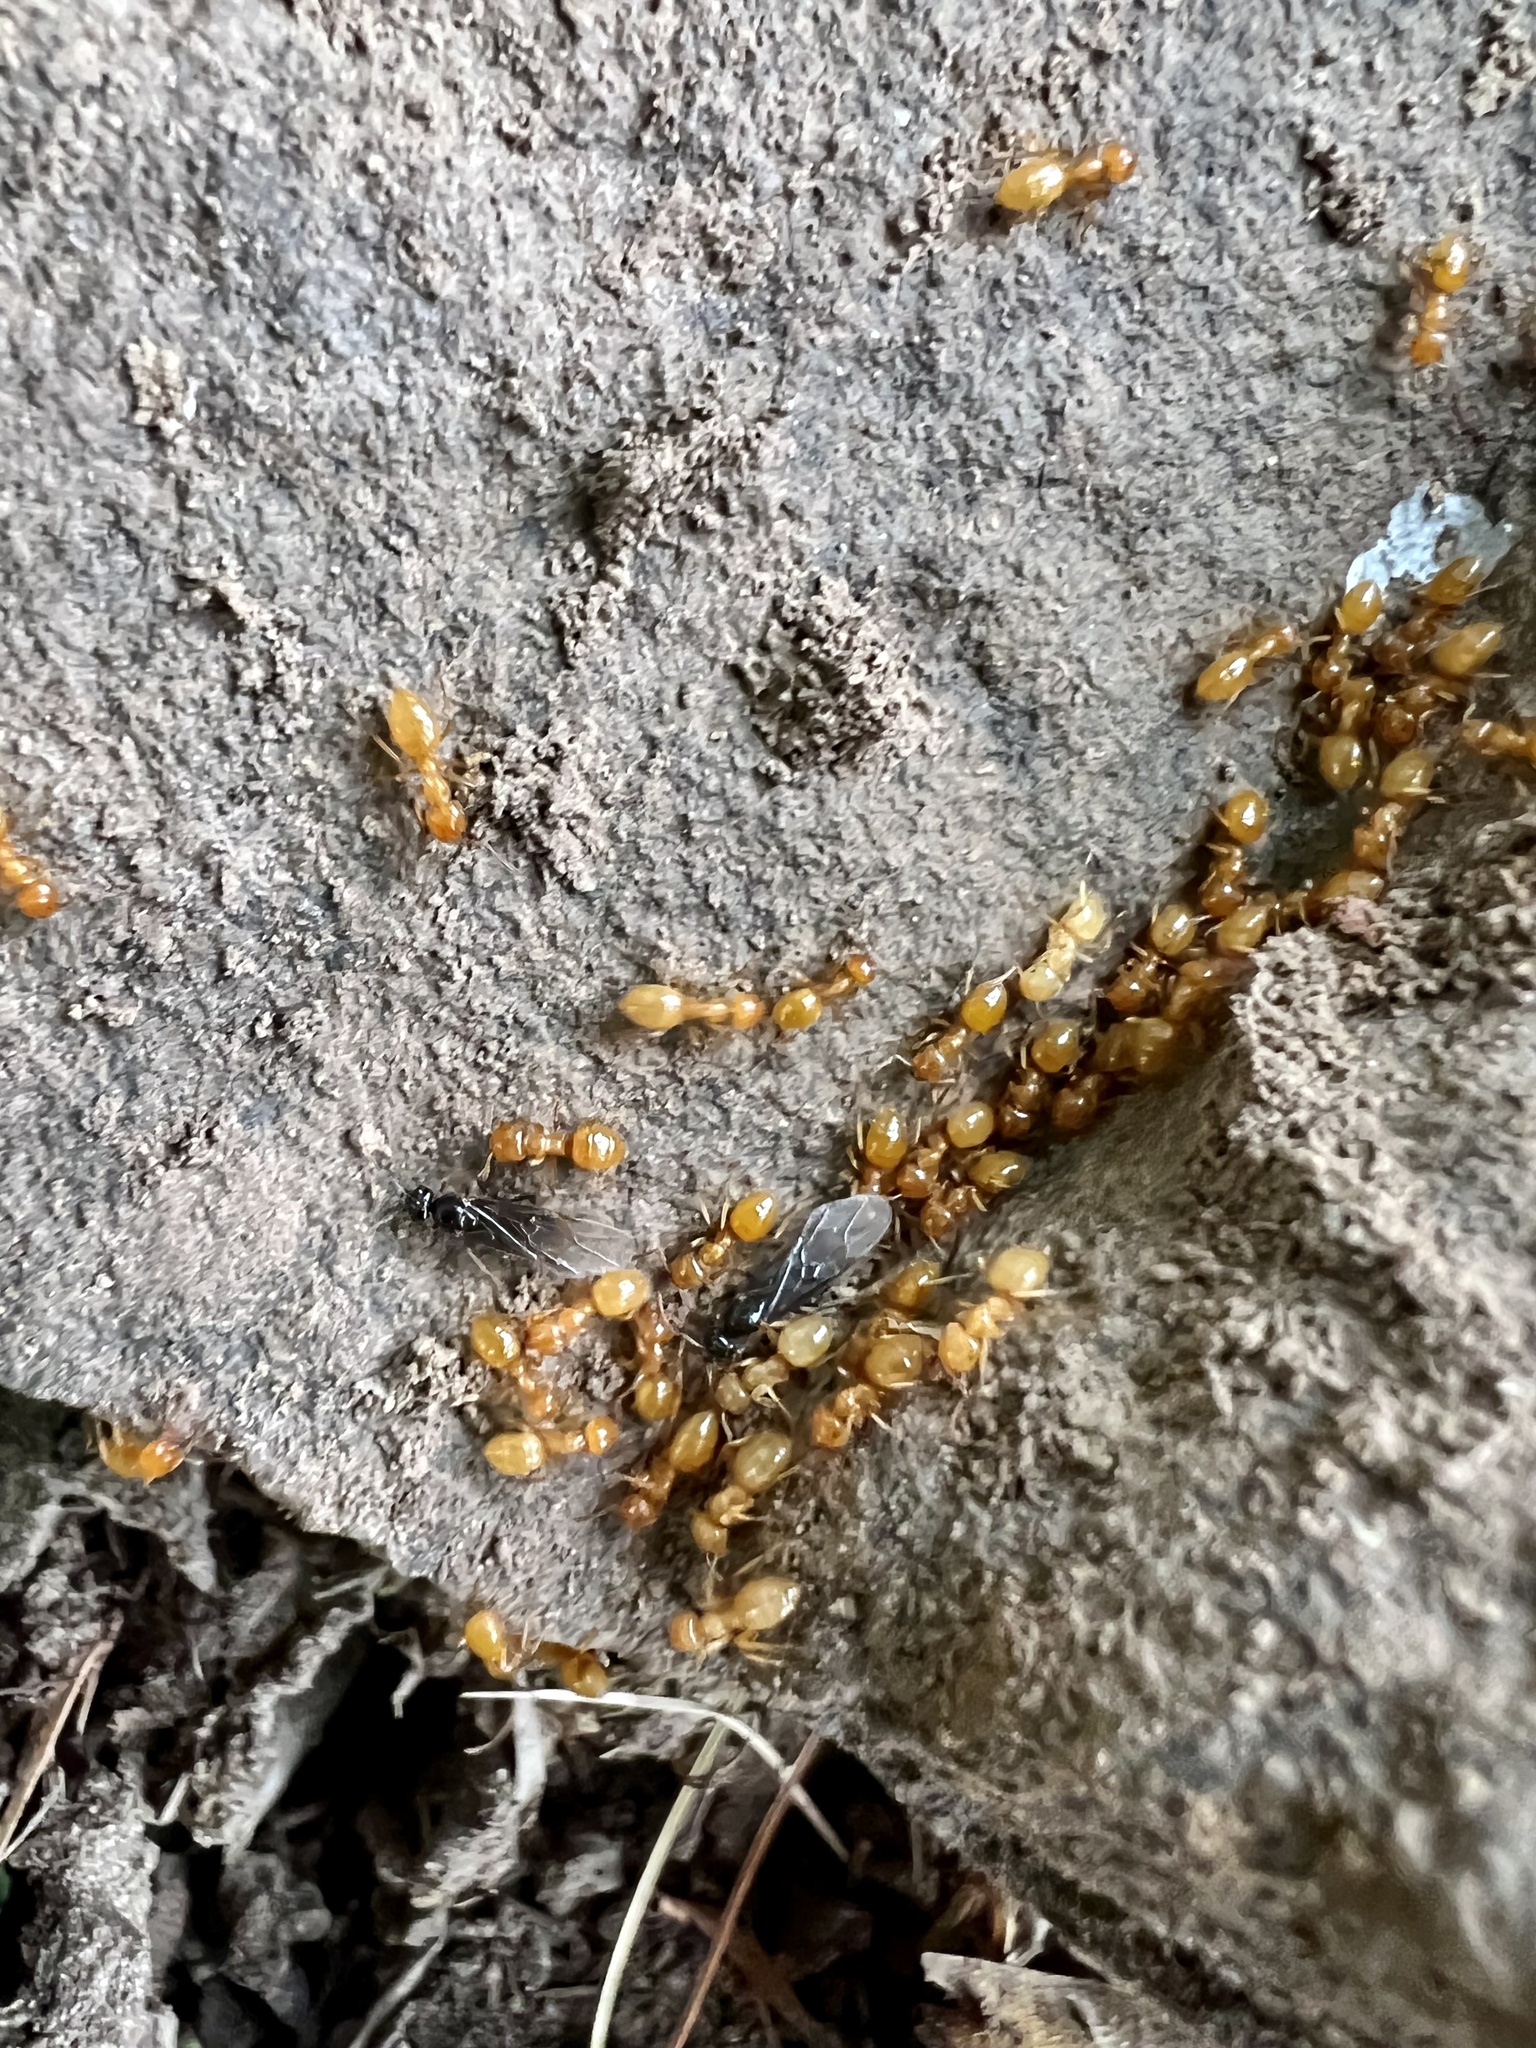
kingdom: Animalia
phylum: Arthropoda
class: Insecta
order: Hymenoptera
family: Formicidae
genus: Acanthomyops
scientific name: Acanthomyops
